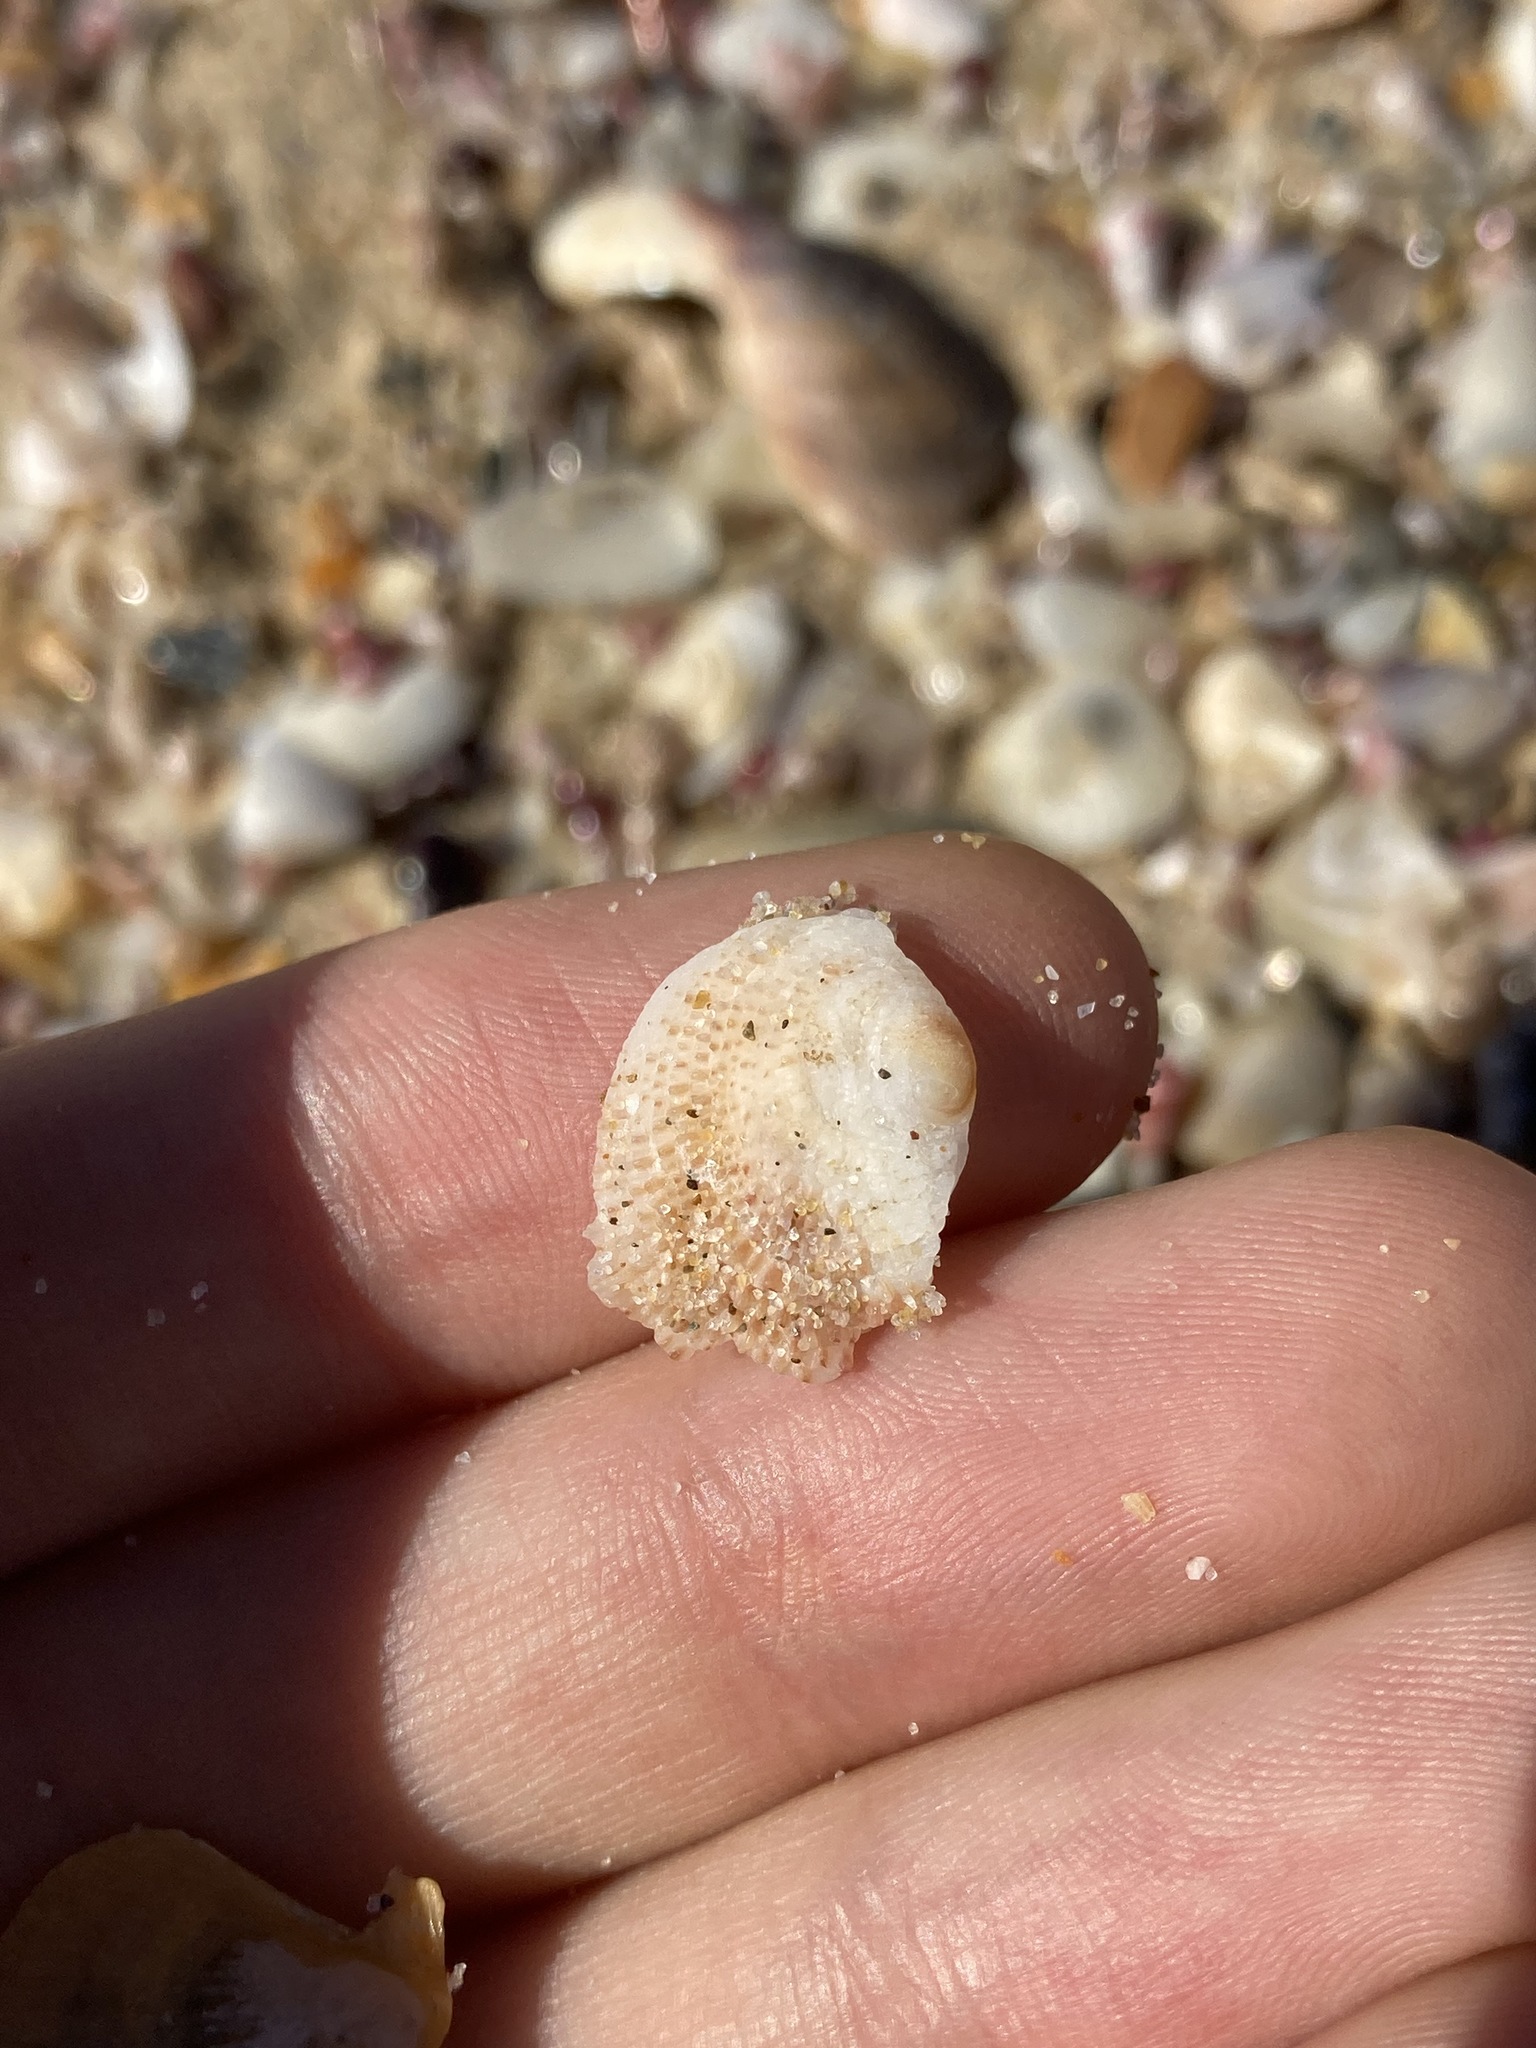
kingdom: Animalia
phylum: Mollusca
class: Bivalvia
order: Venerida
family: Chamidae
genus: Chama
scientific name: Chama asperella
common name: Mollusca
